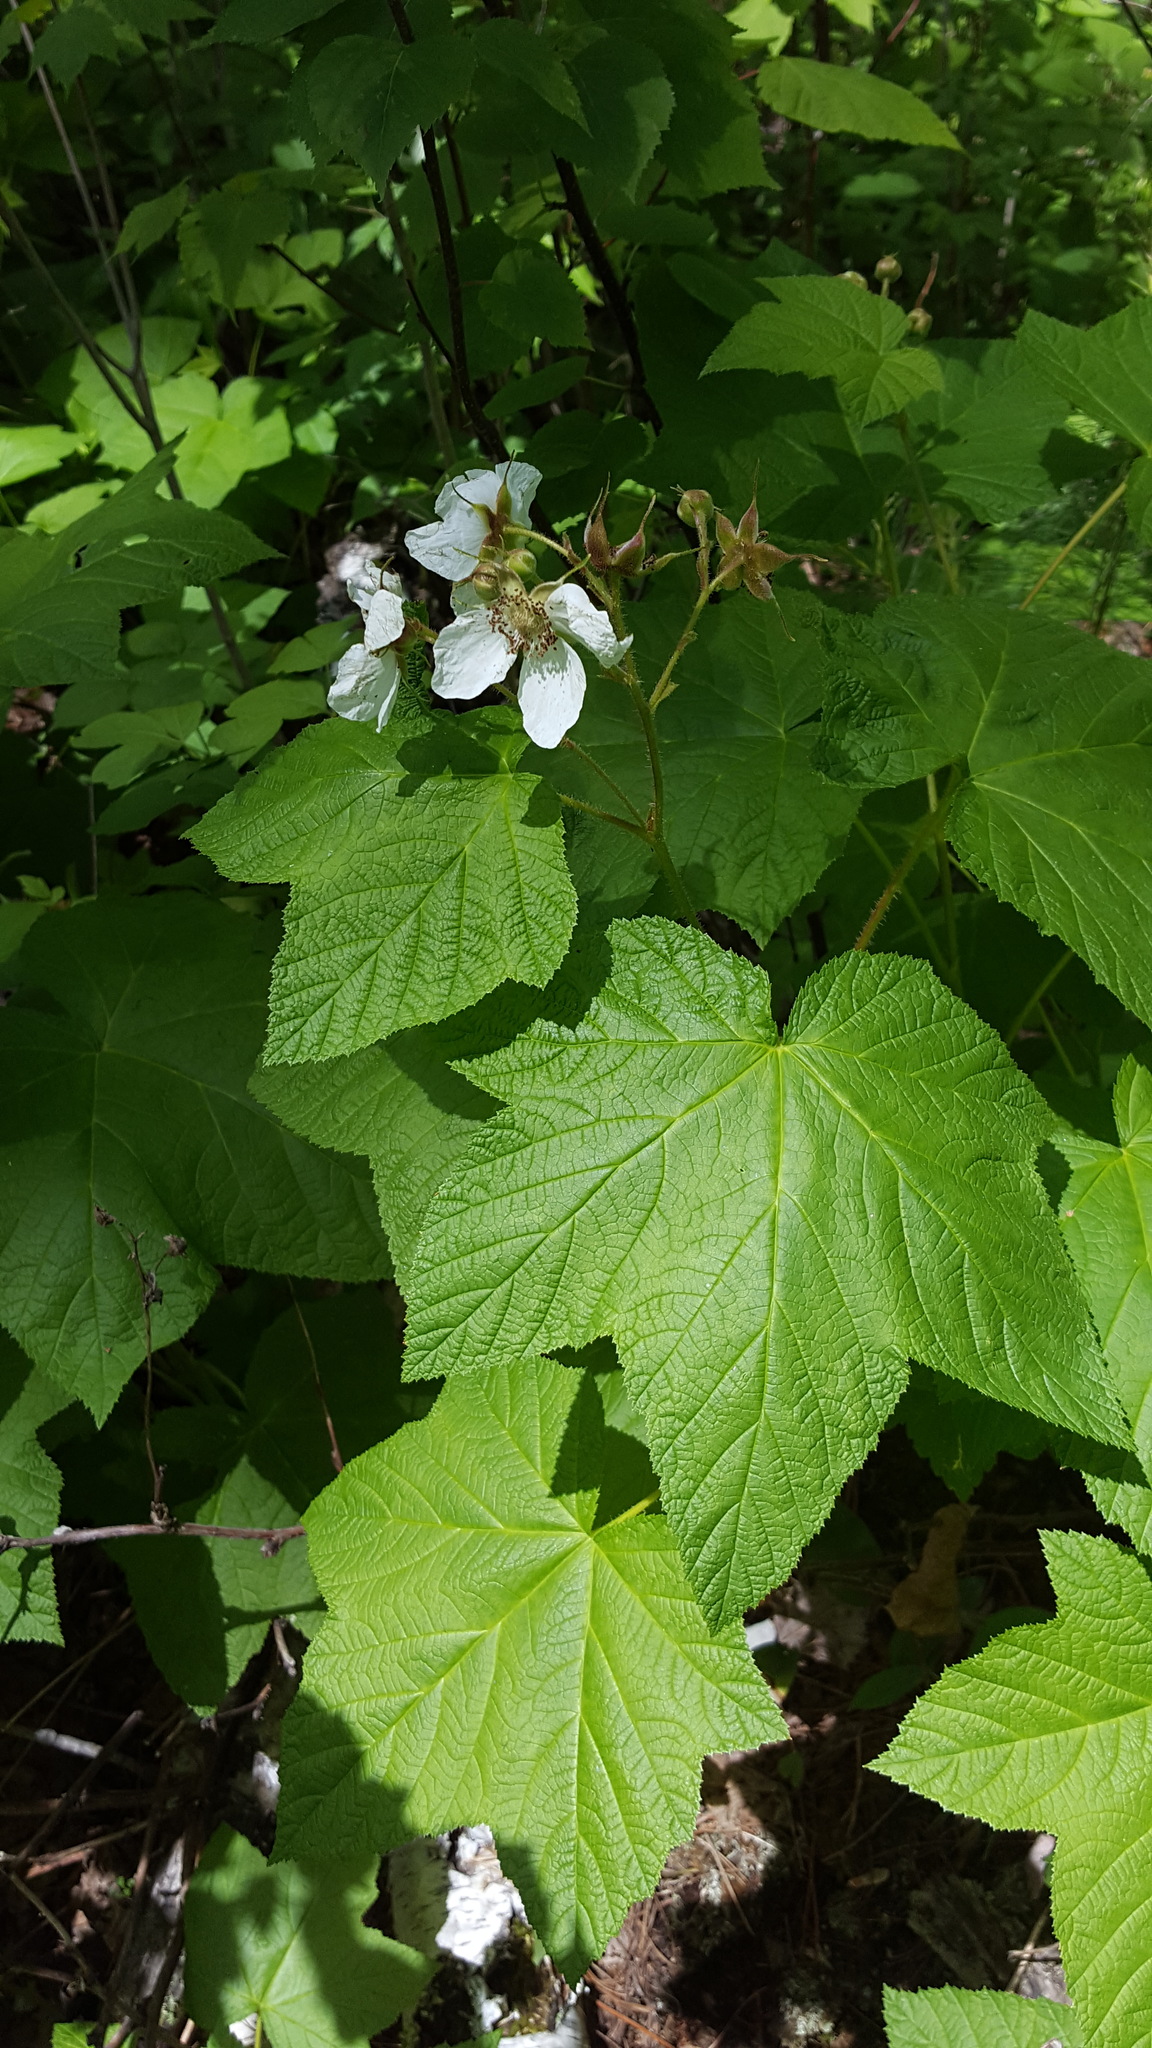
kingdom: Plantae
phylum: Tracheophyta
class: Magnoliopsida
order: Rosales
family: Rosaceae
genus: Rubus
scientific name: Rubus parviflorus
